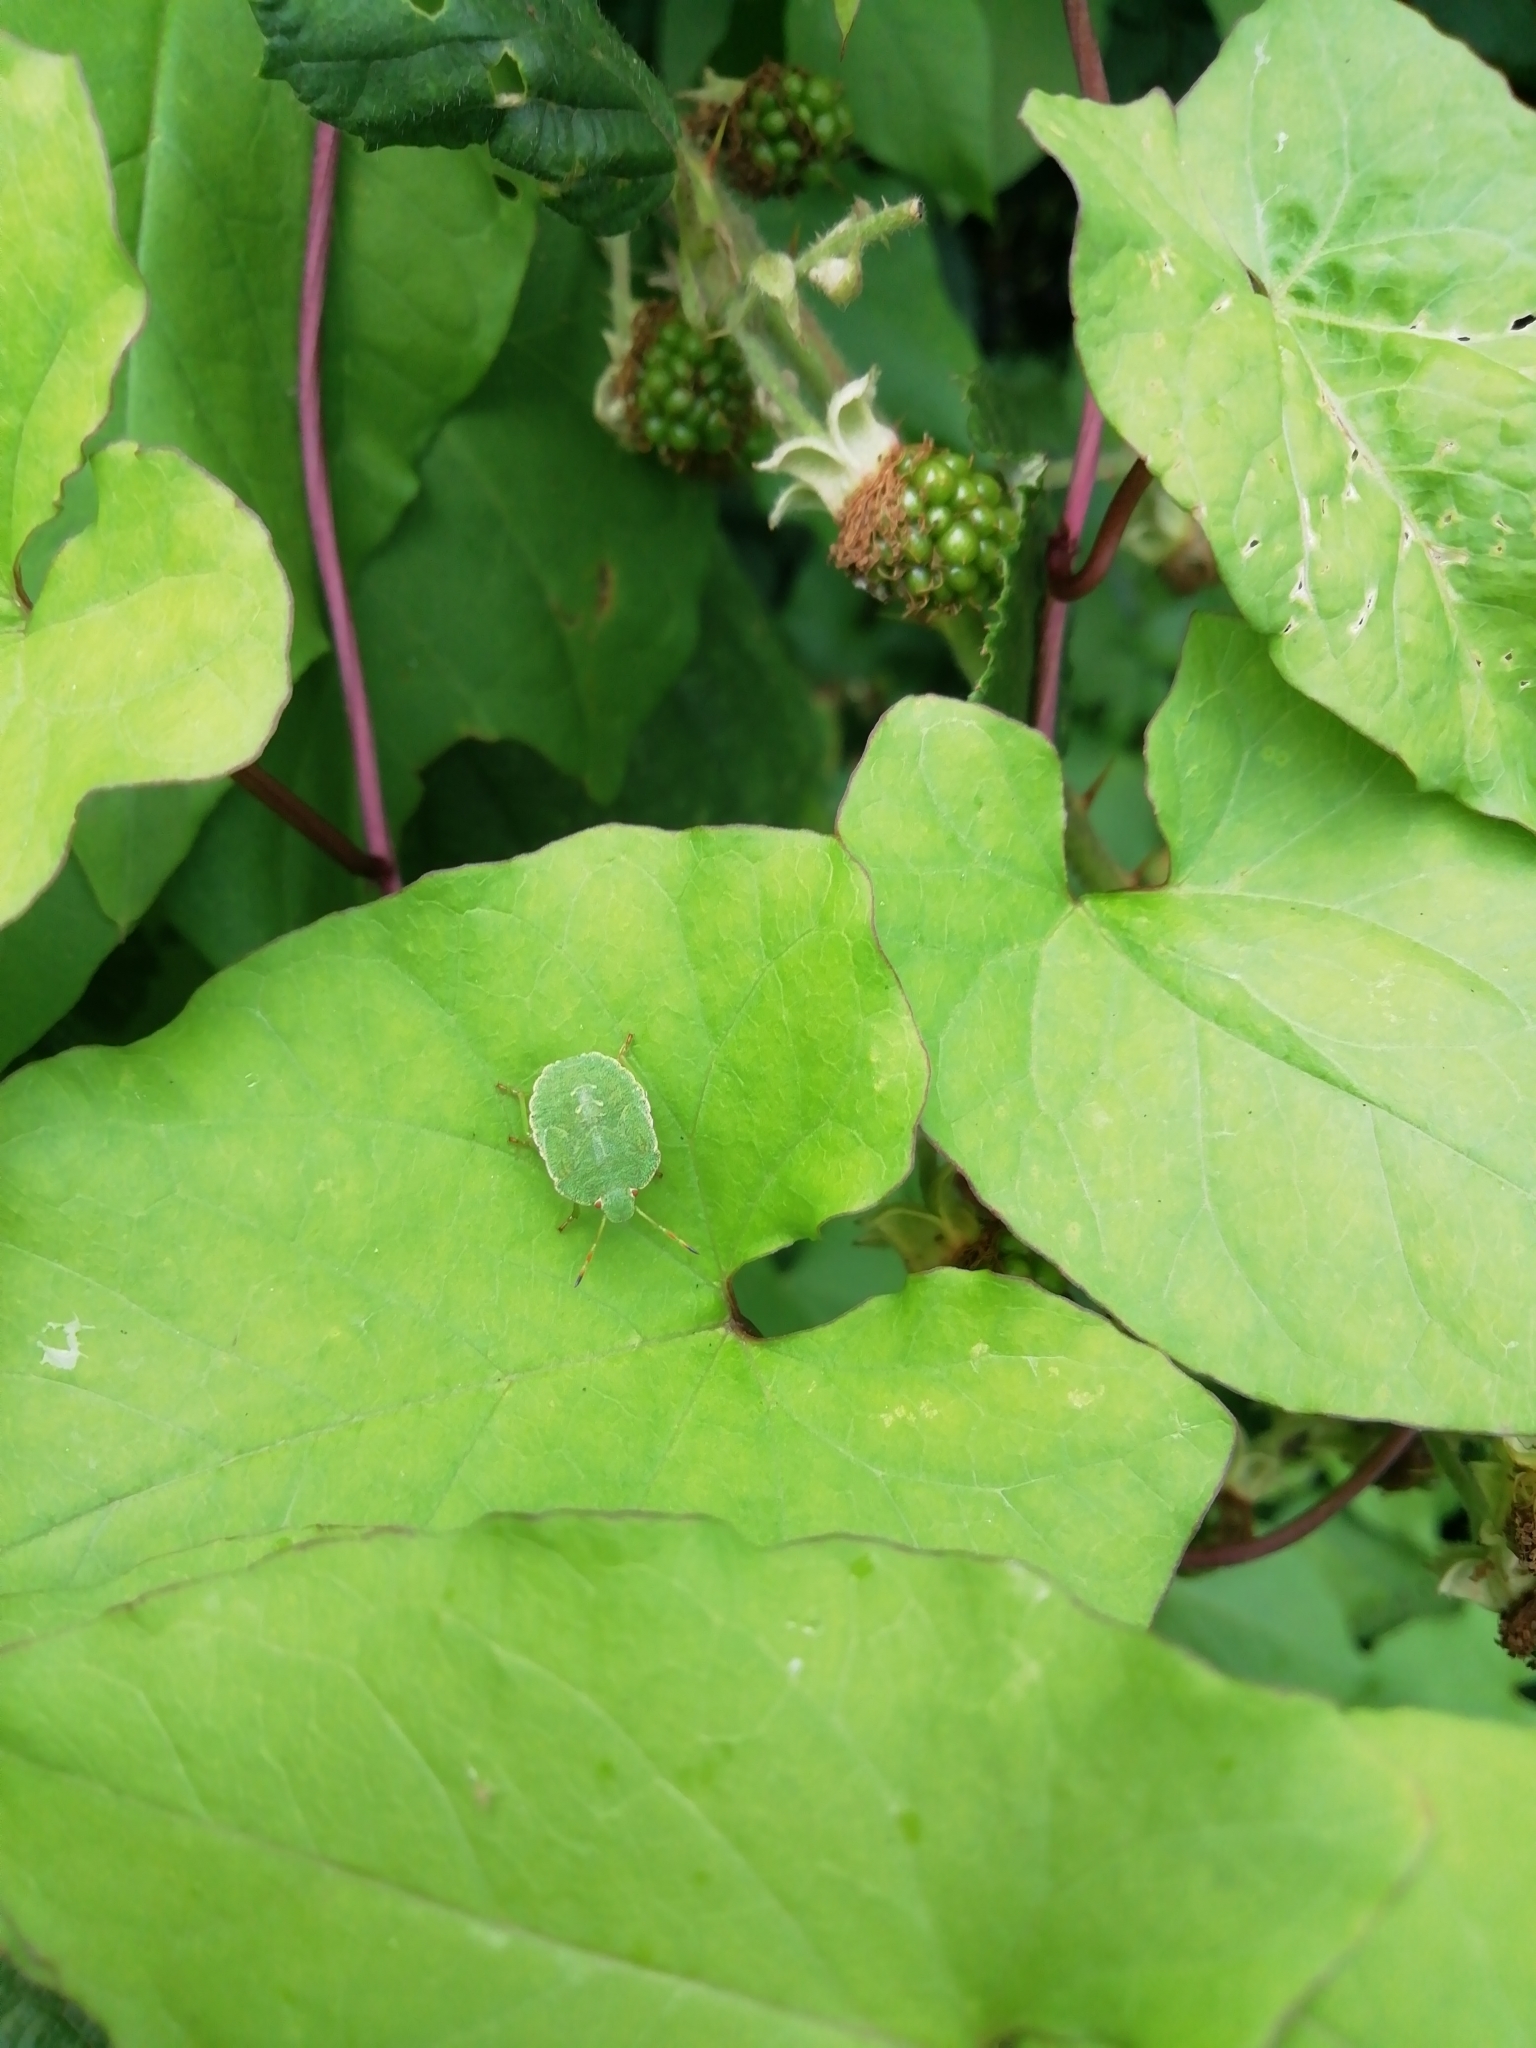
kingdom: Animalia
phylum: Arthropoda
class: Insecta
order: Hemiptera
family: Pentatomidae
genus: Palomena
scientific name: Palomena prasina
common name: Green shieldbug
